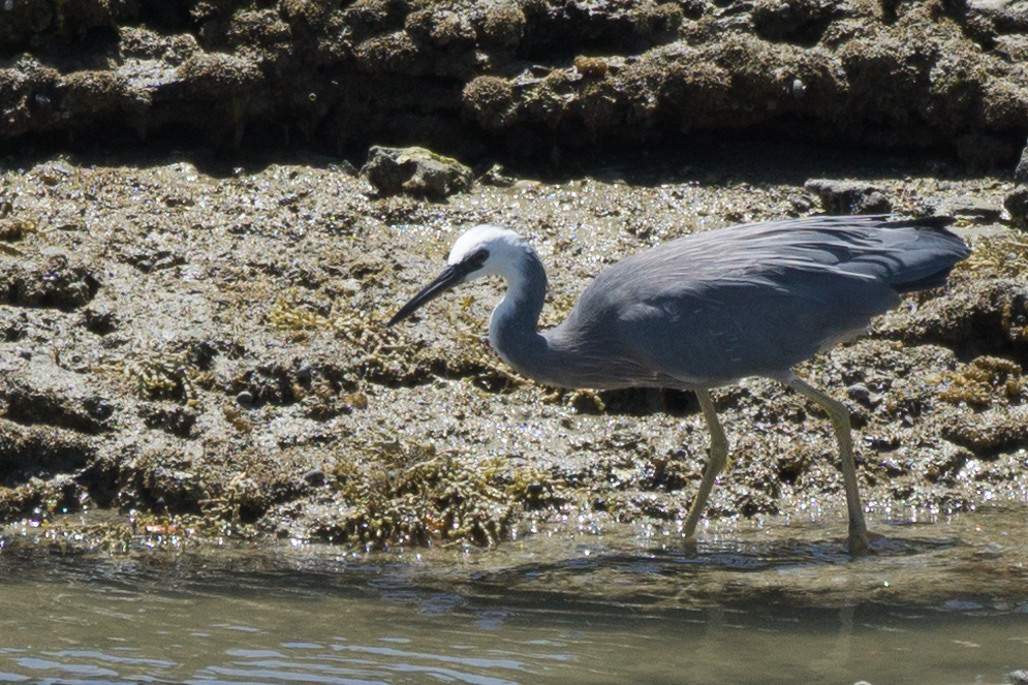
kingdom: Animalia
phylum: Chordata
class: Aves
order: Pelecaniformes
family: Ardeidae
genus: Egretta
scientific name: Egretta novaehollandiae
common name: White-faced heron
